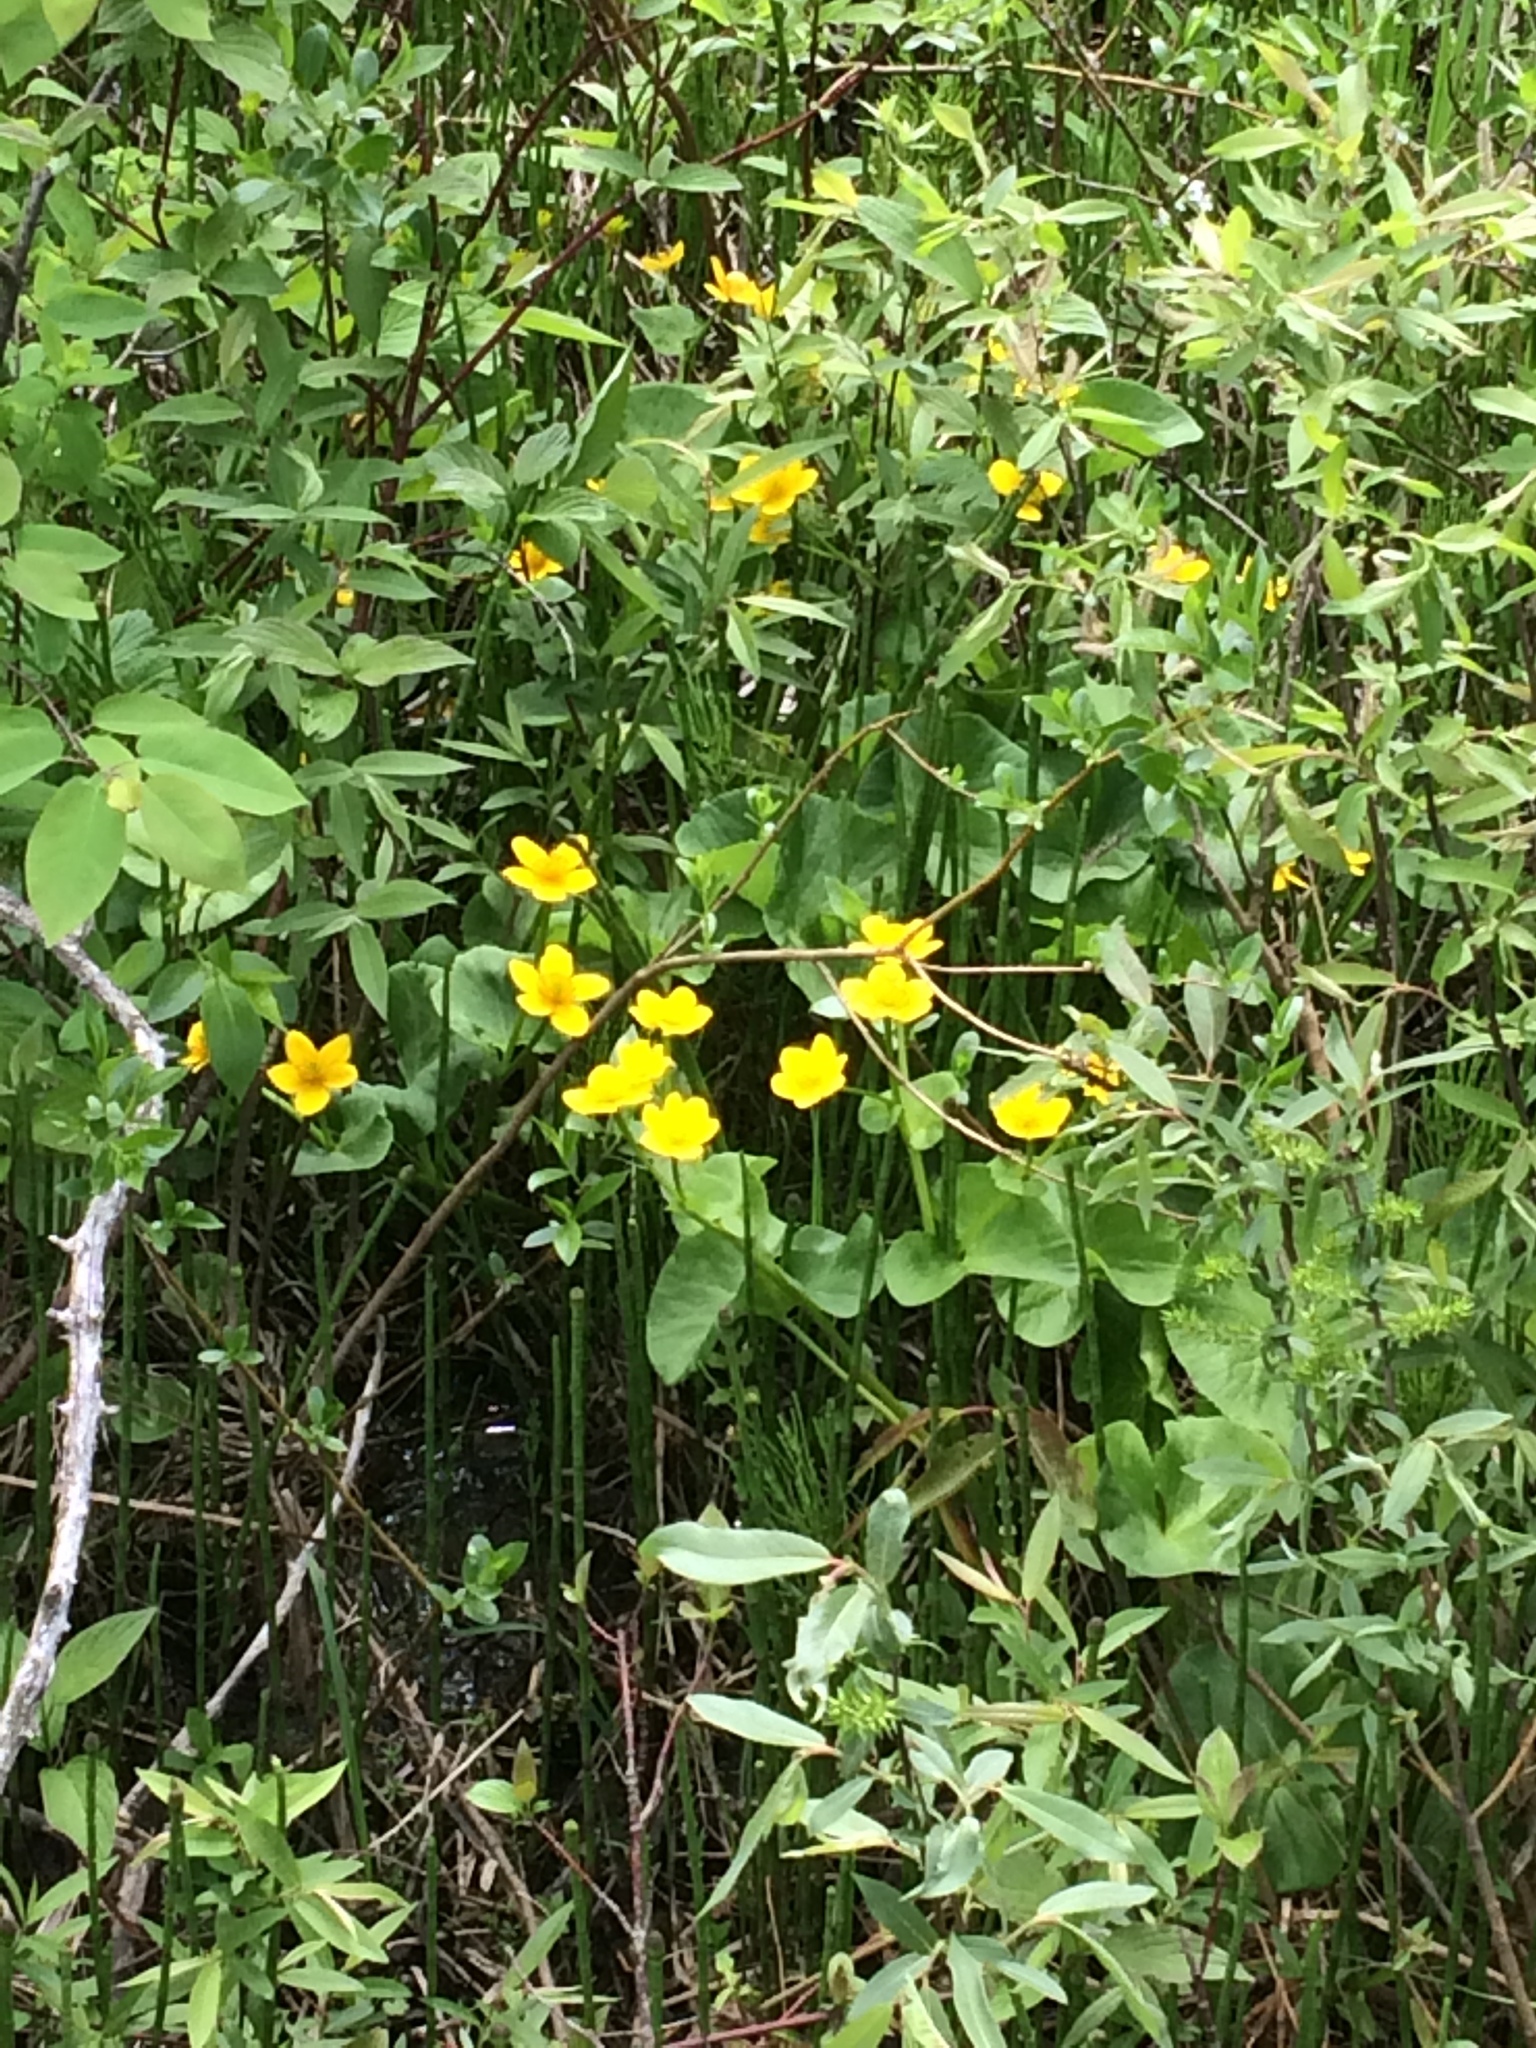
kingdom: Plantae
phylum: Tracheophyta
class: Magnoliopsida
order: Ranunculales
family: Ranunculaceae
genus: Caltha
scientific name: Caltha palustris
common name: Marsh marigold
